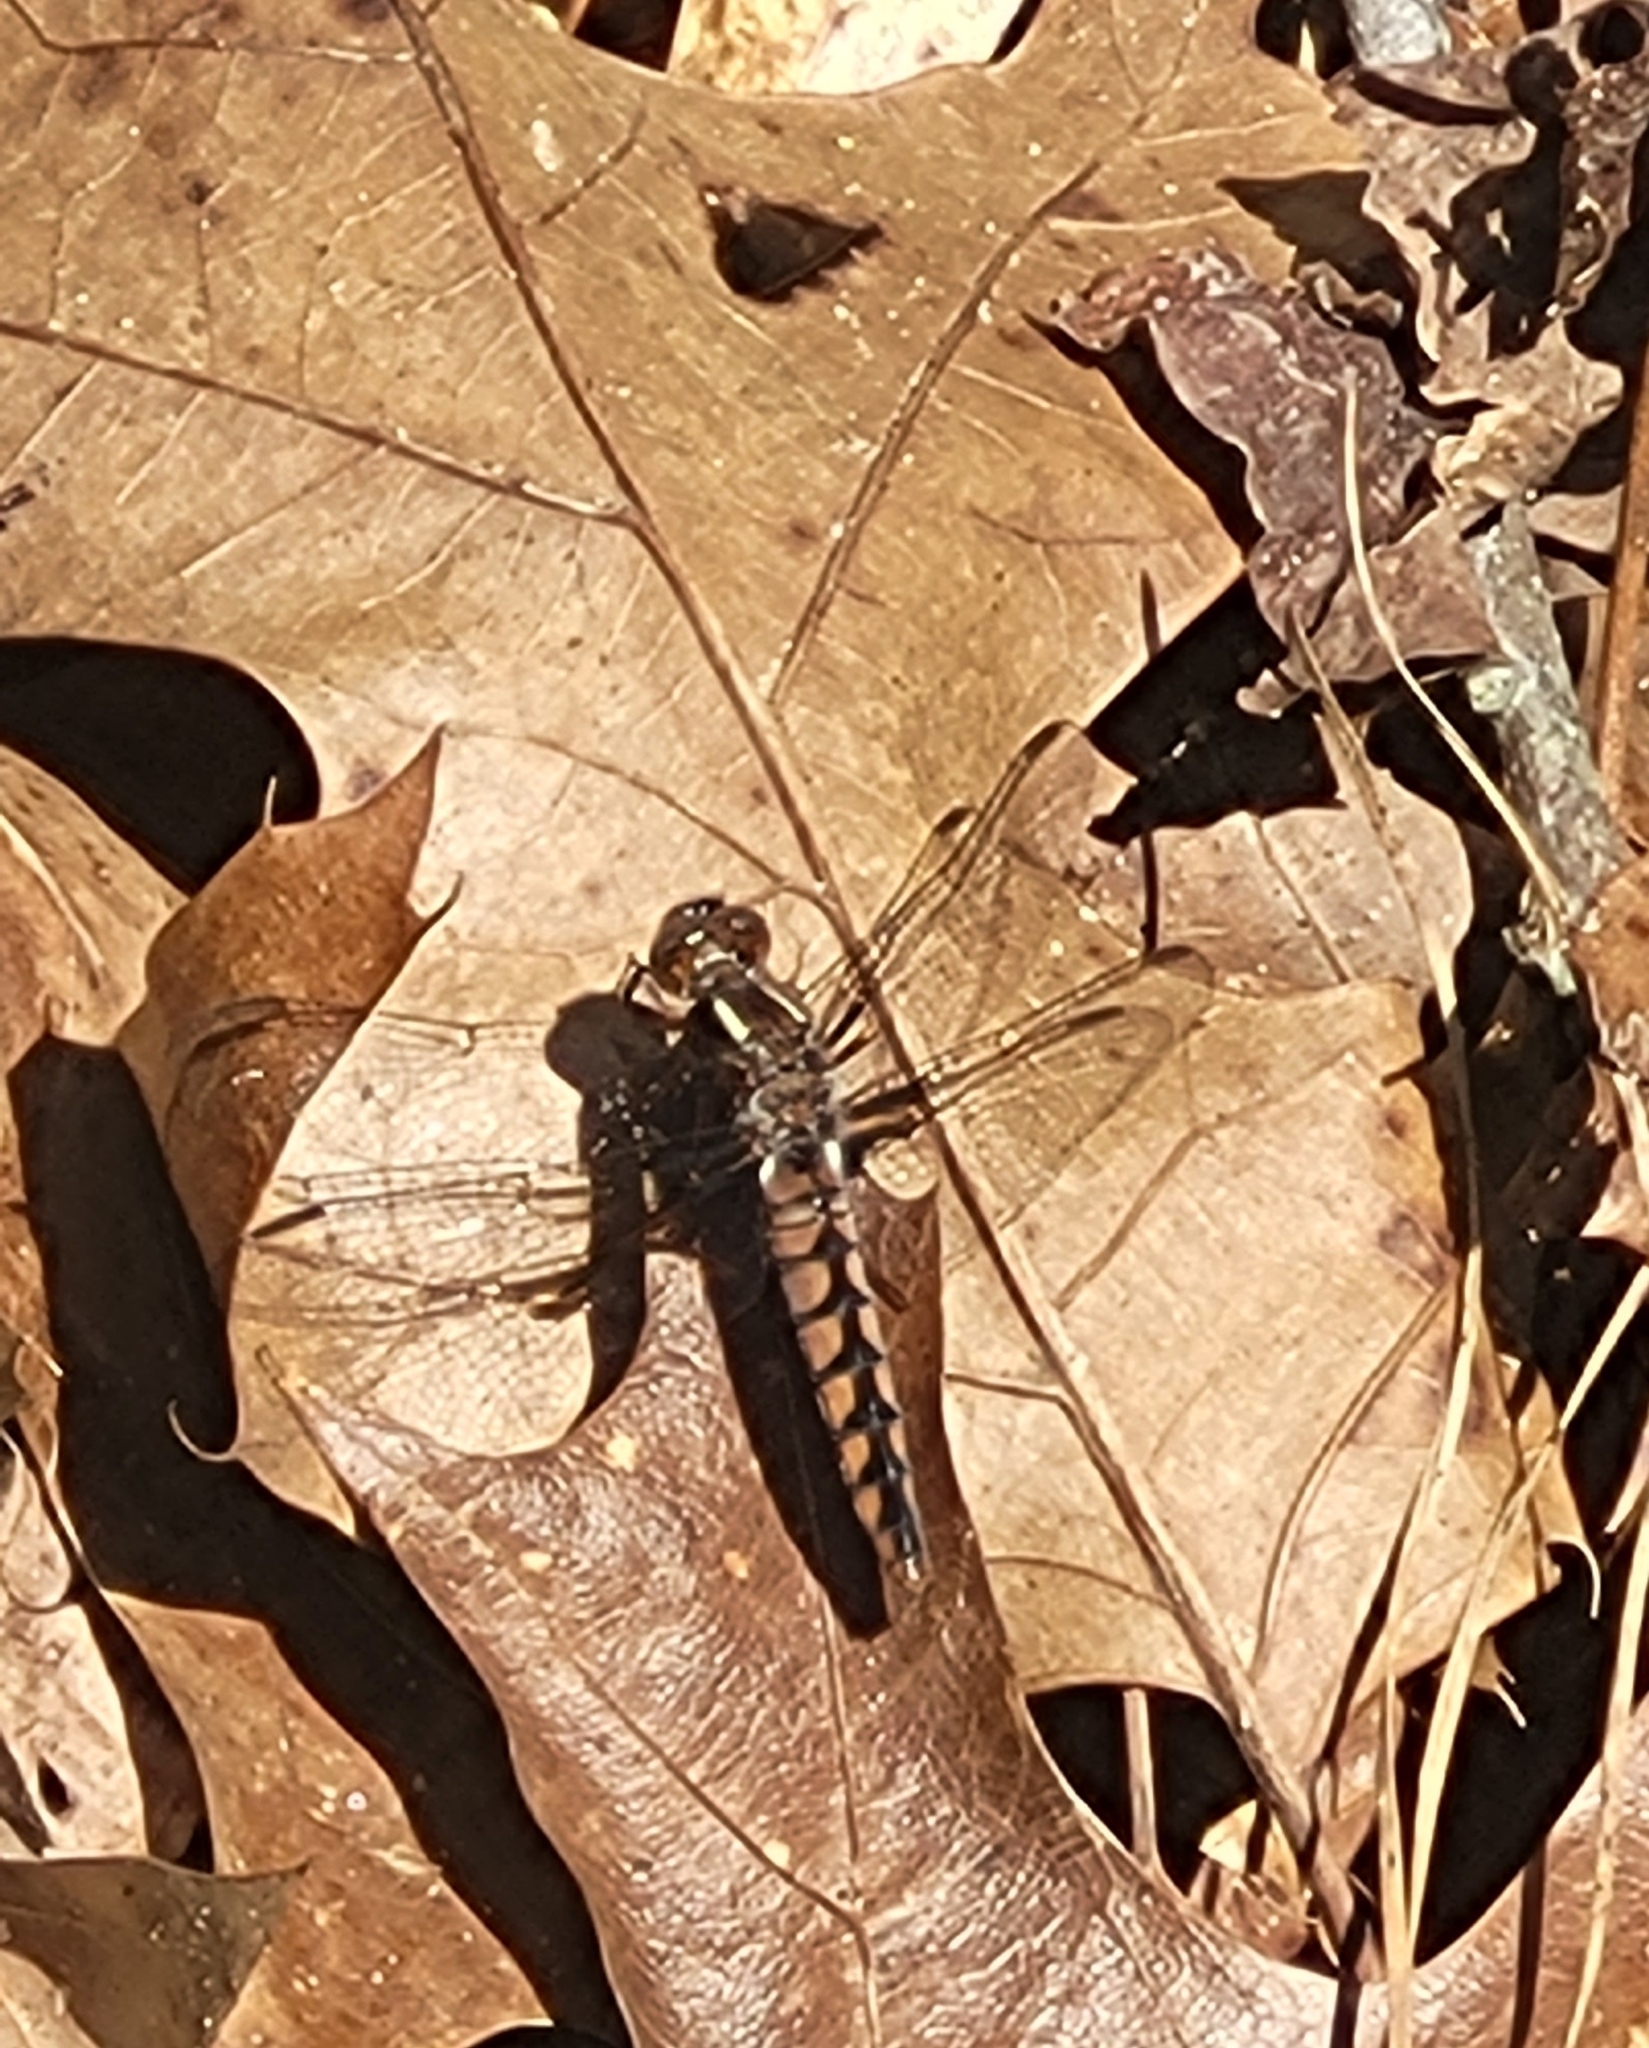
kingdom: Animalia
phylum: Arthropoda
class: Insecta
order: Odonata
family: Libellulidae
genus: Ladona
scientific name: Ladona deplanata
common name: Blue corporal
